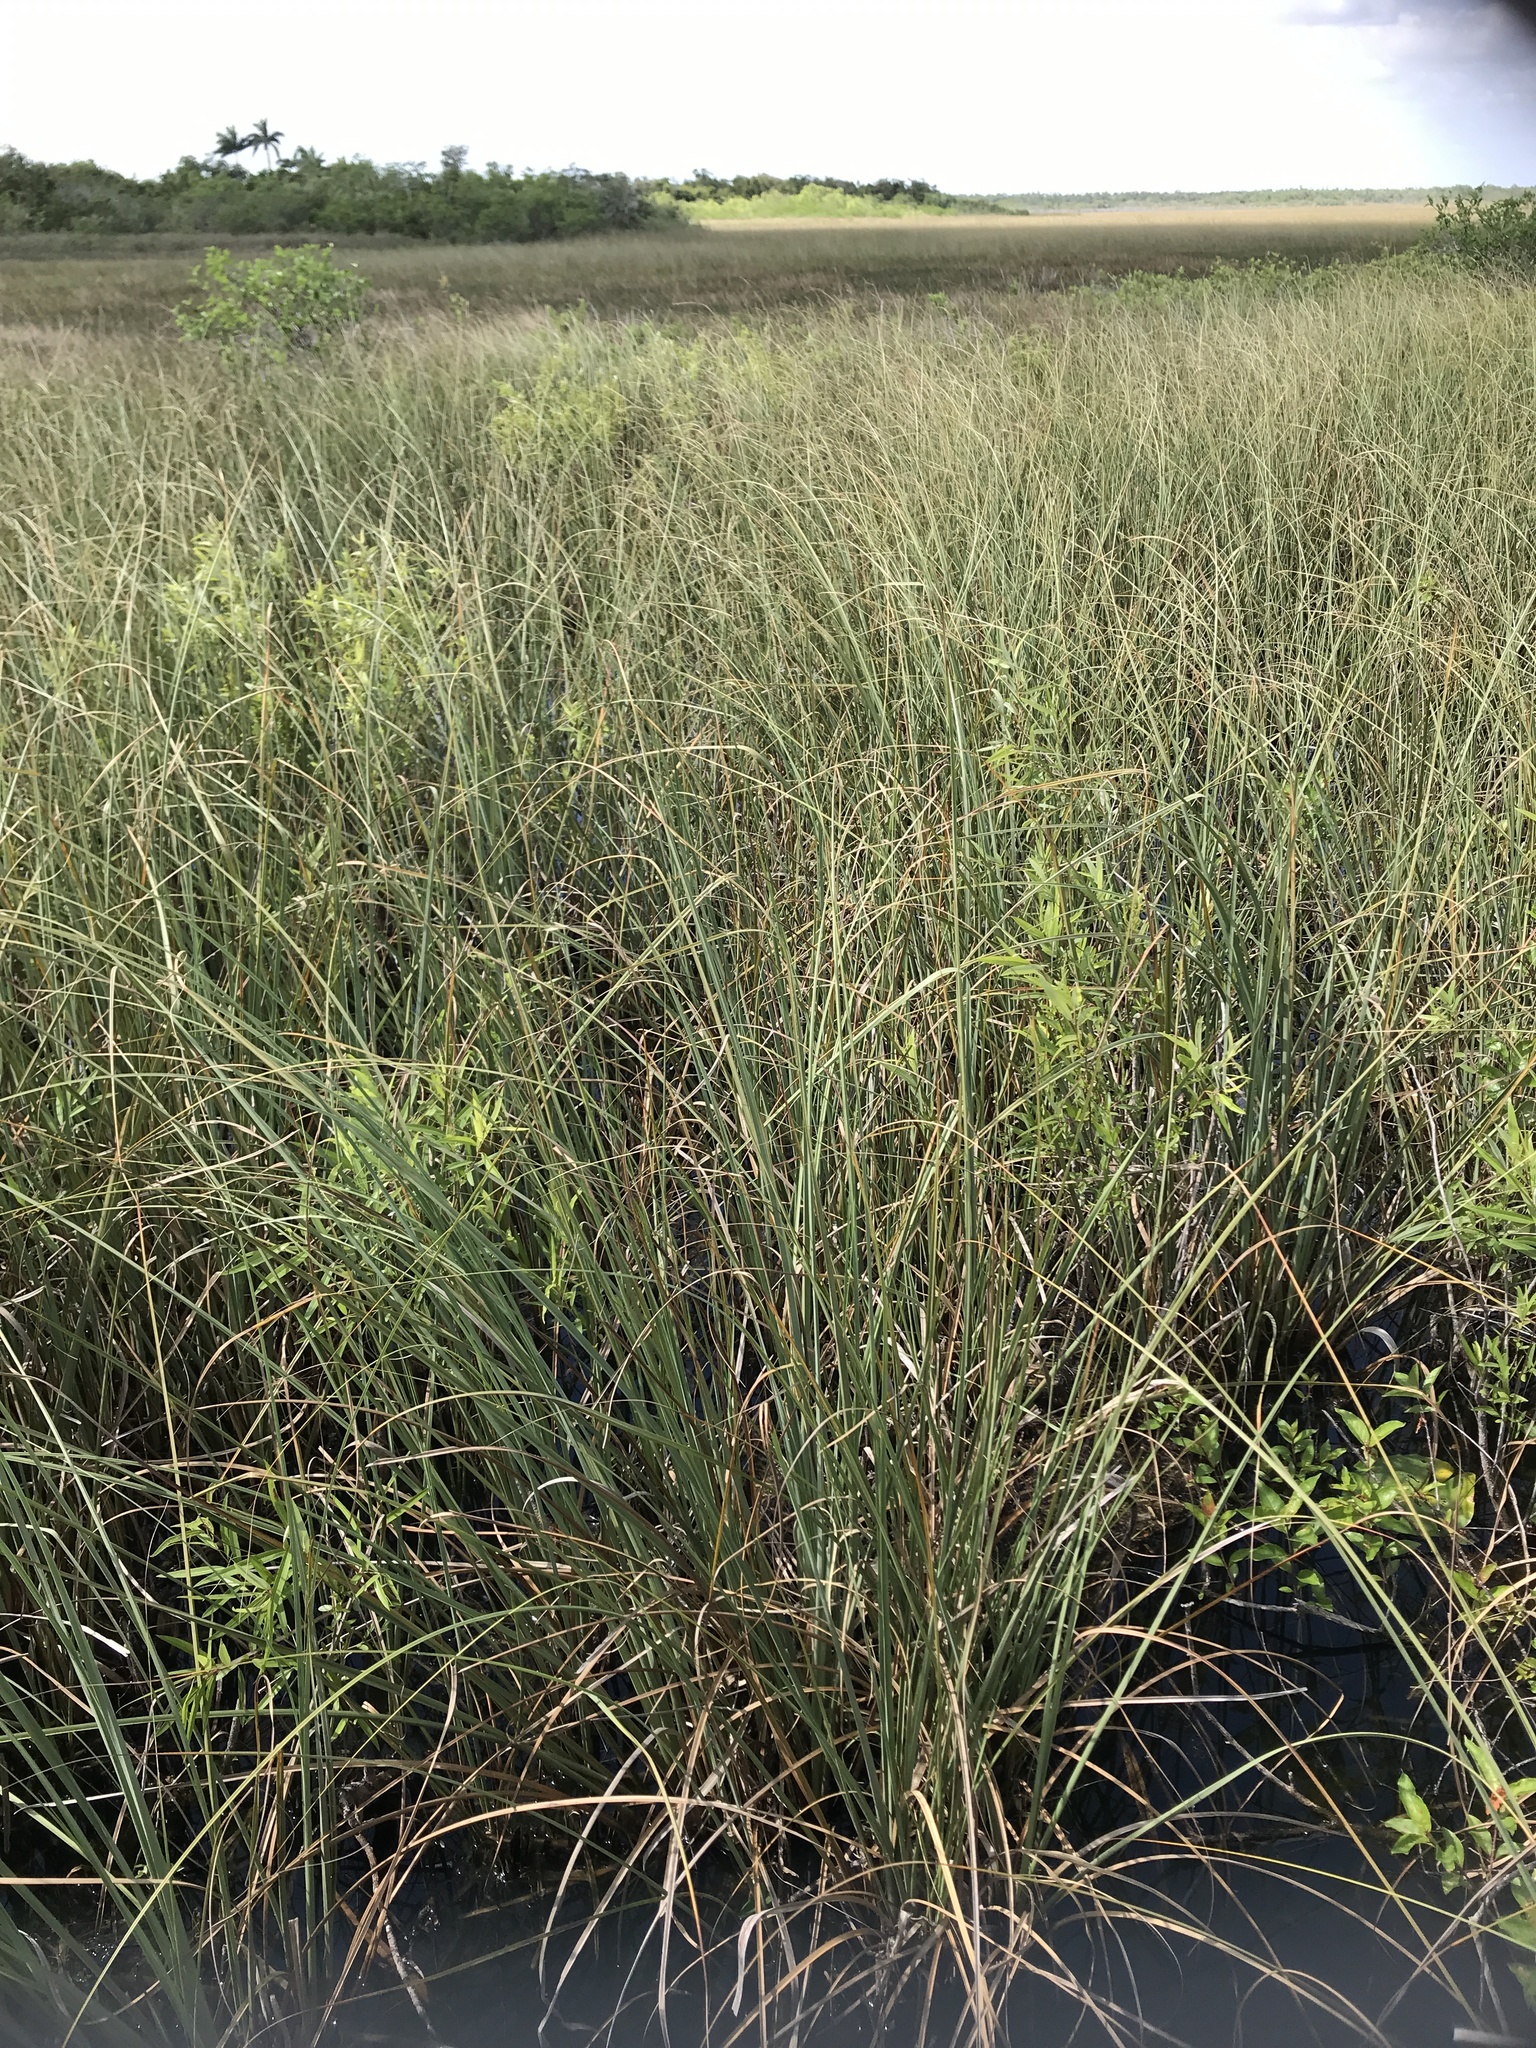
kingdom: Plantae
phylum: Tracheophyta
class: Liliopsida
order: Poales
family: Cyperaceae
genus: Cladium
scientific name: Cladium mariscus
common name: Great fen-sedge
